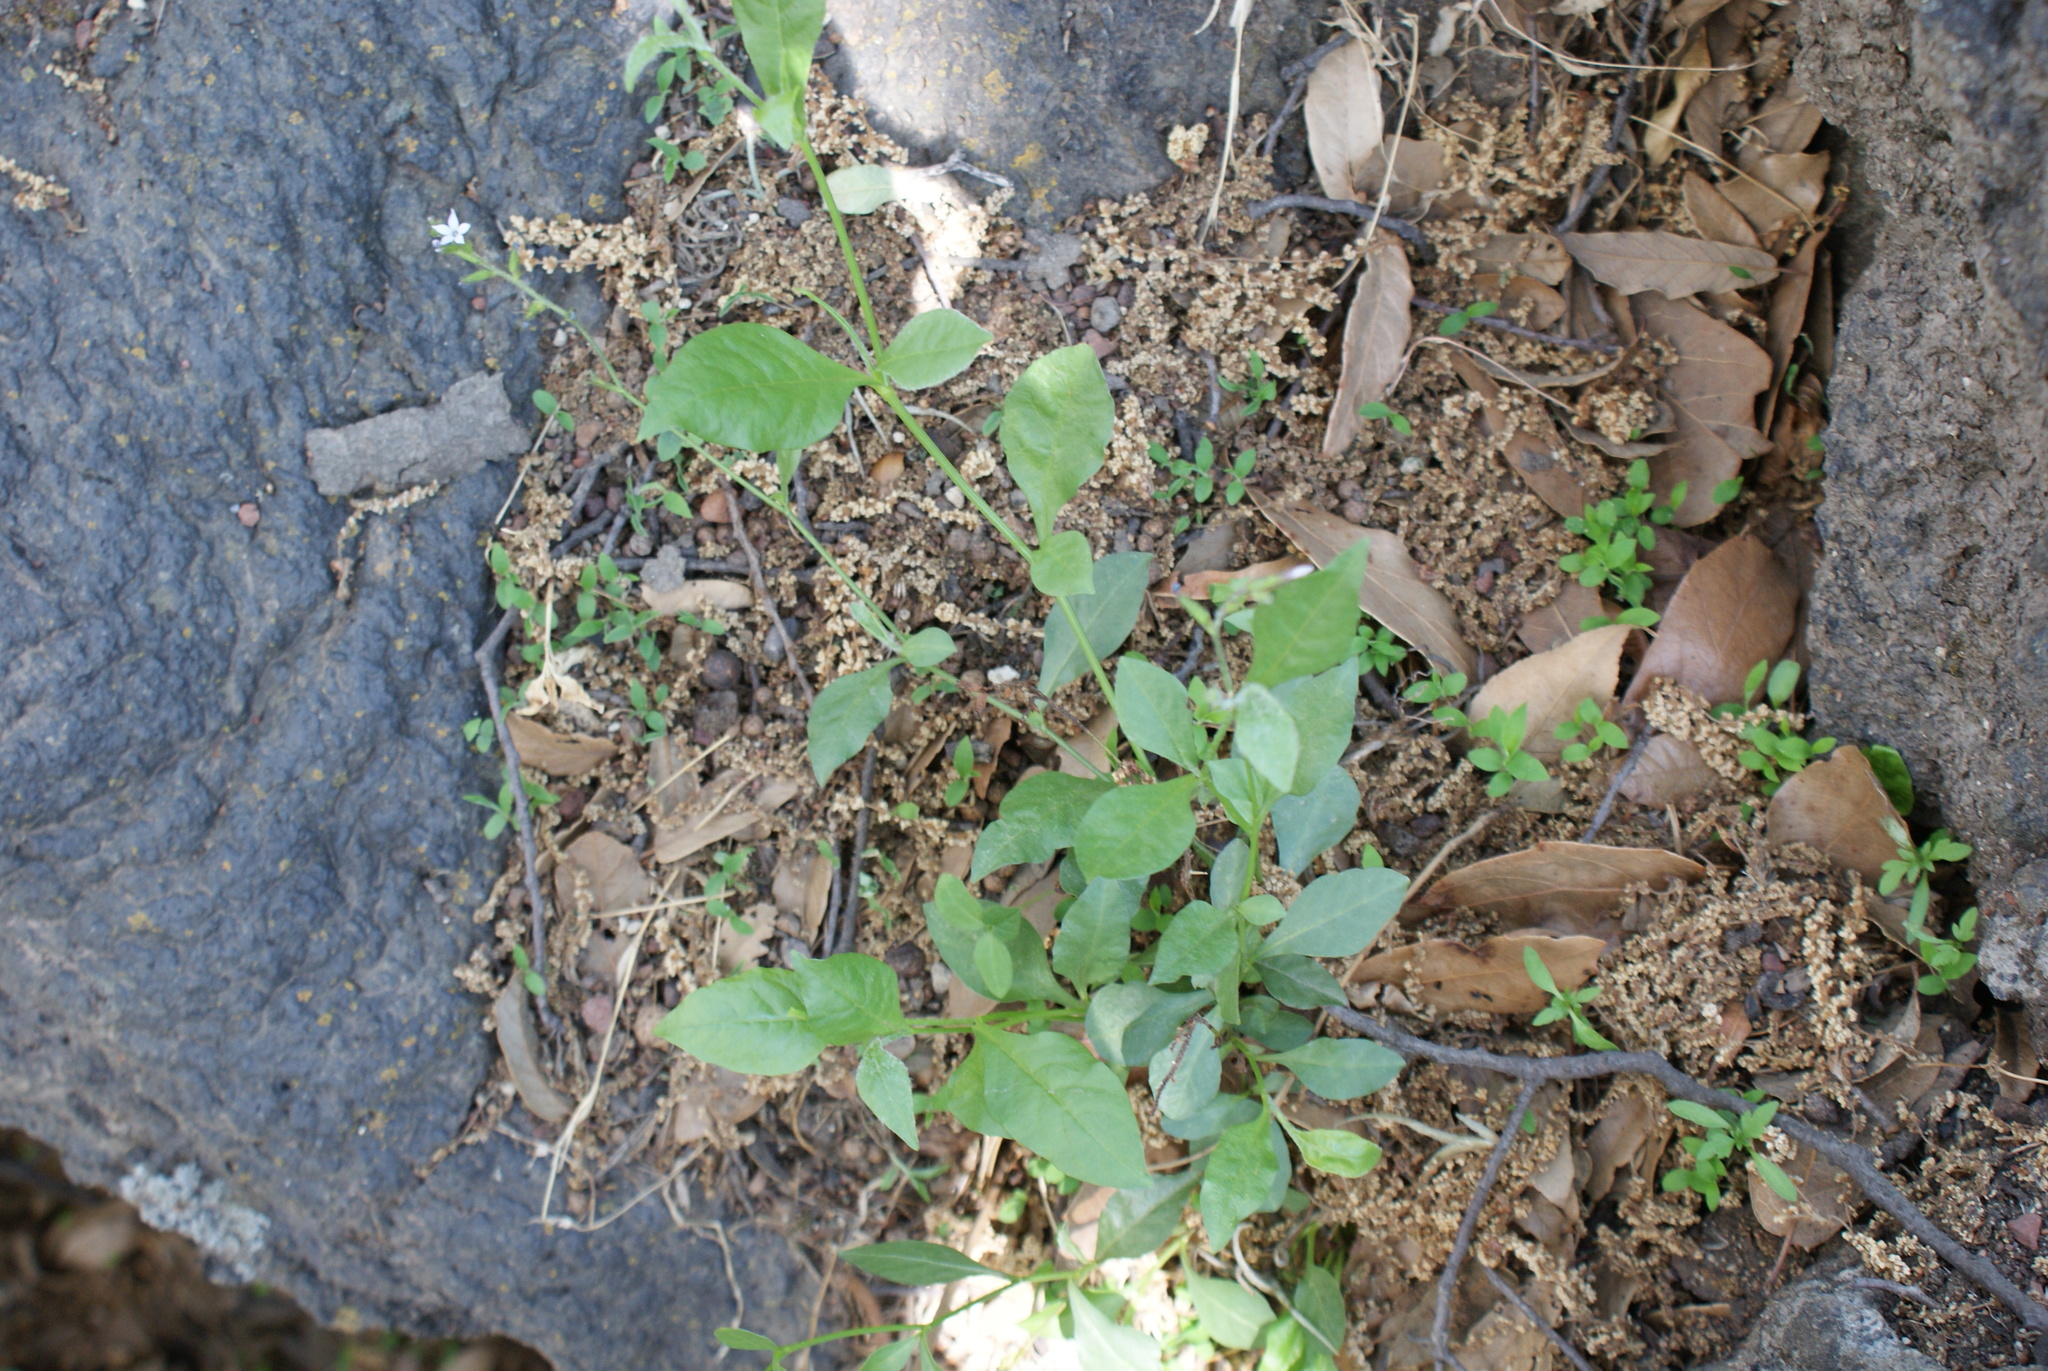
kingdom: Plantae
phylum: Tracheophyta
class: Magnoliopsida
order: Caryophyllales
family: Plumbaginaceae
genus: Plumbago
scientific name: Plumbago pulchella
